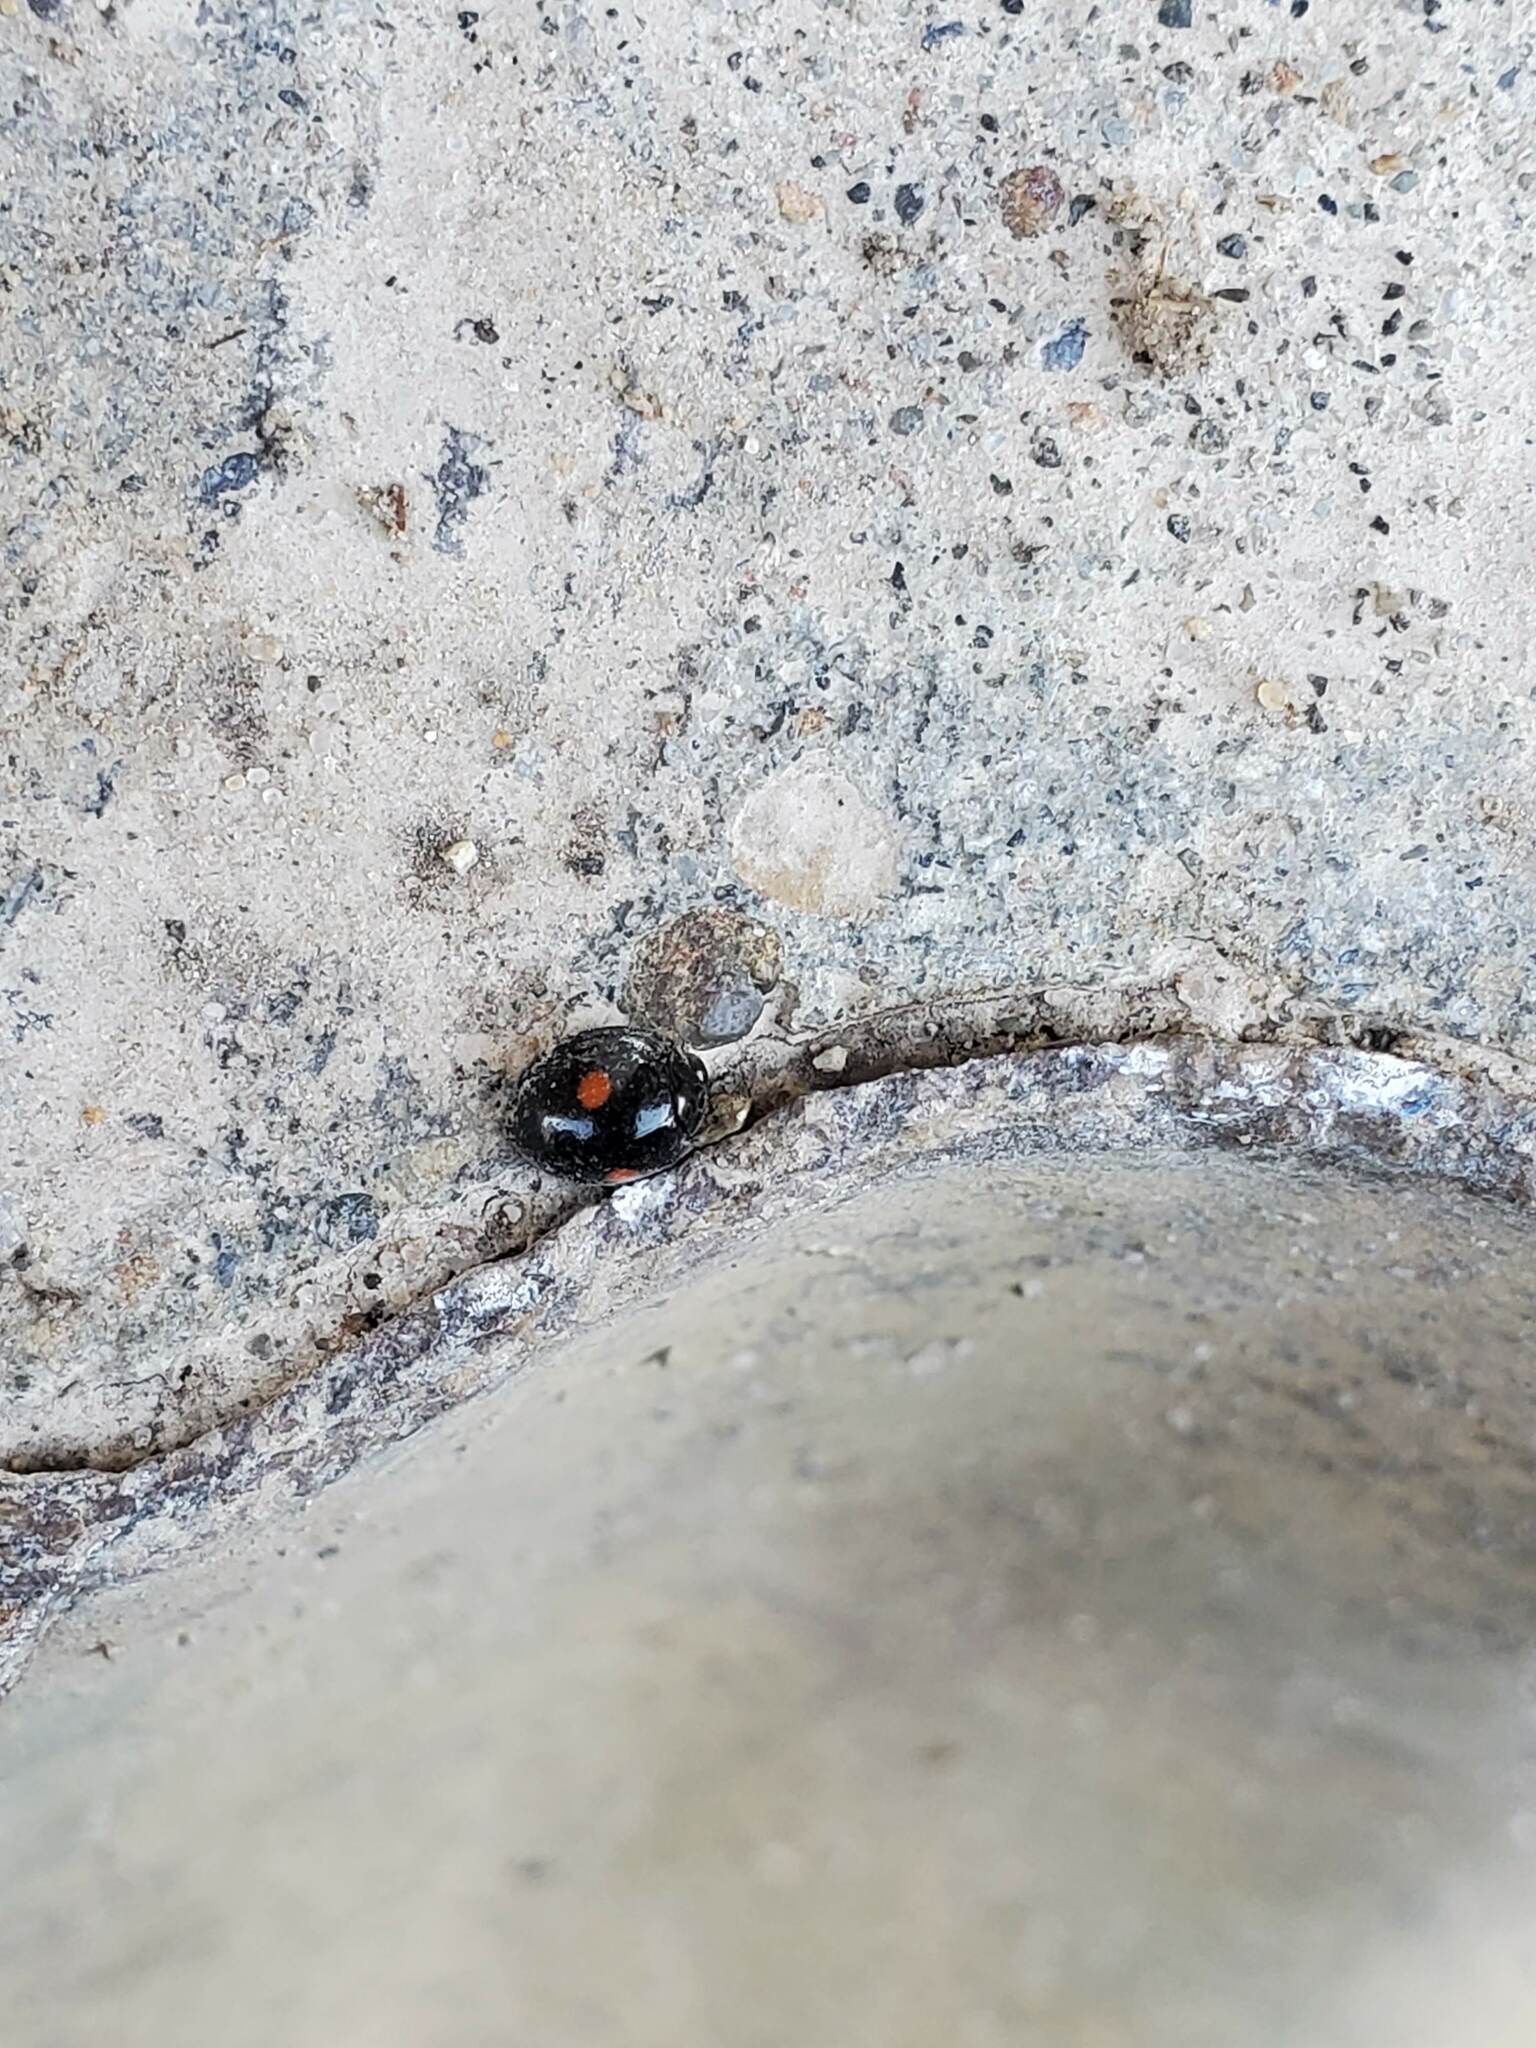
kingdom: Animalia
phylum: Arthropoda
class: Insecta
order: Coleoptera
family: Coccinellidae
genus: Chilocorus
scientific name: Chilocorus stigma
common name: Twicestabbed lady beetle
